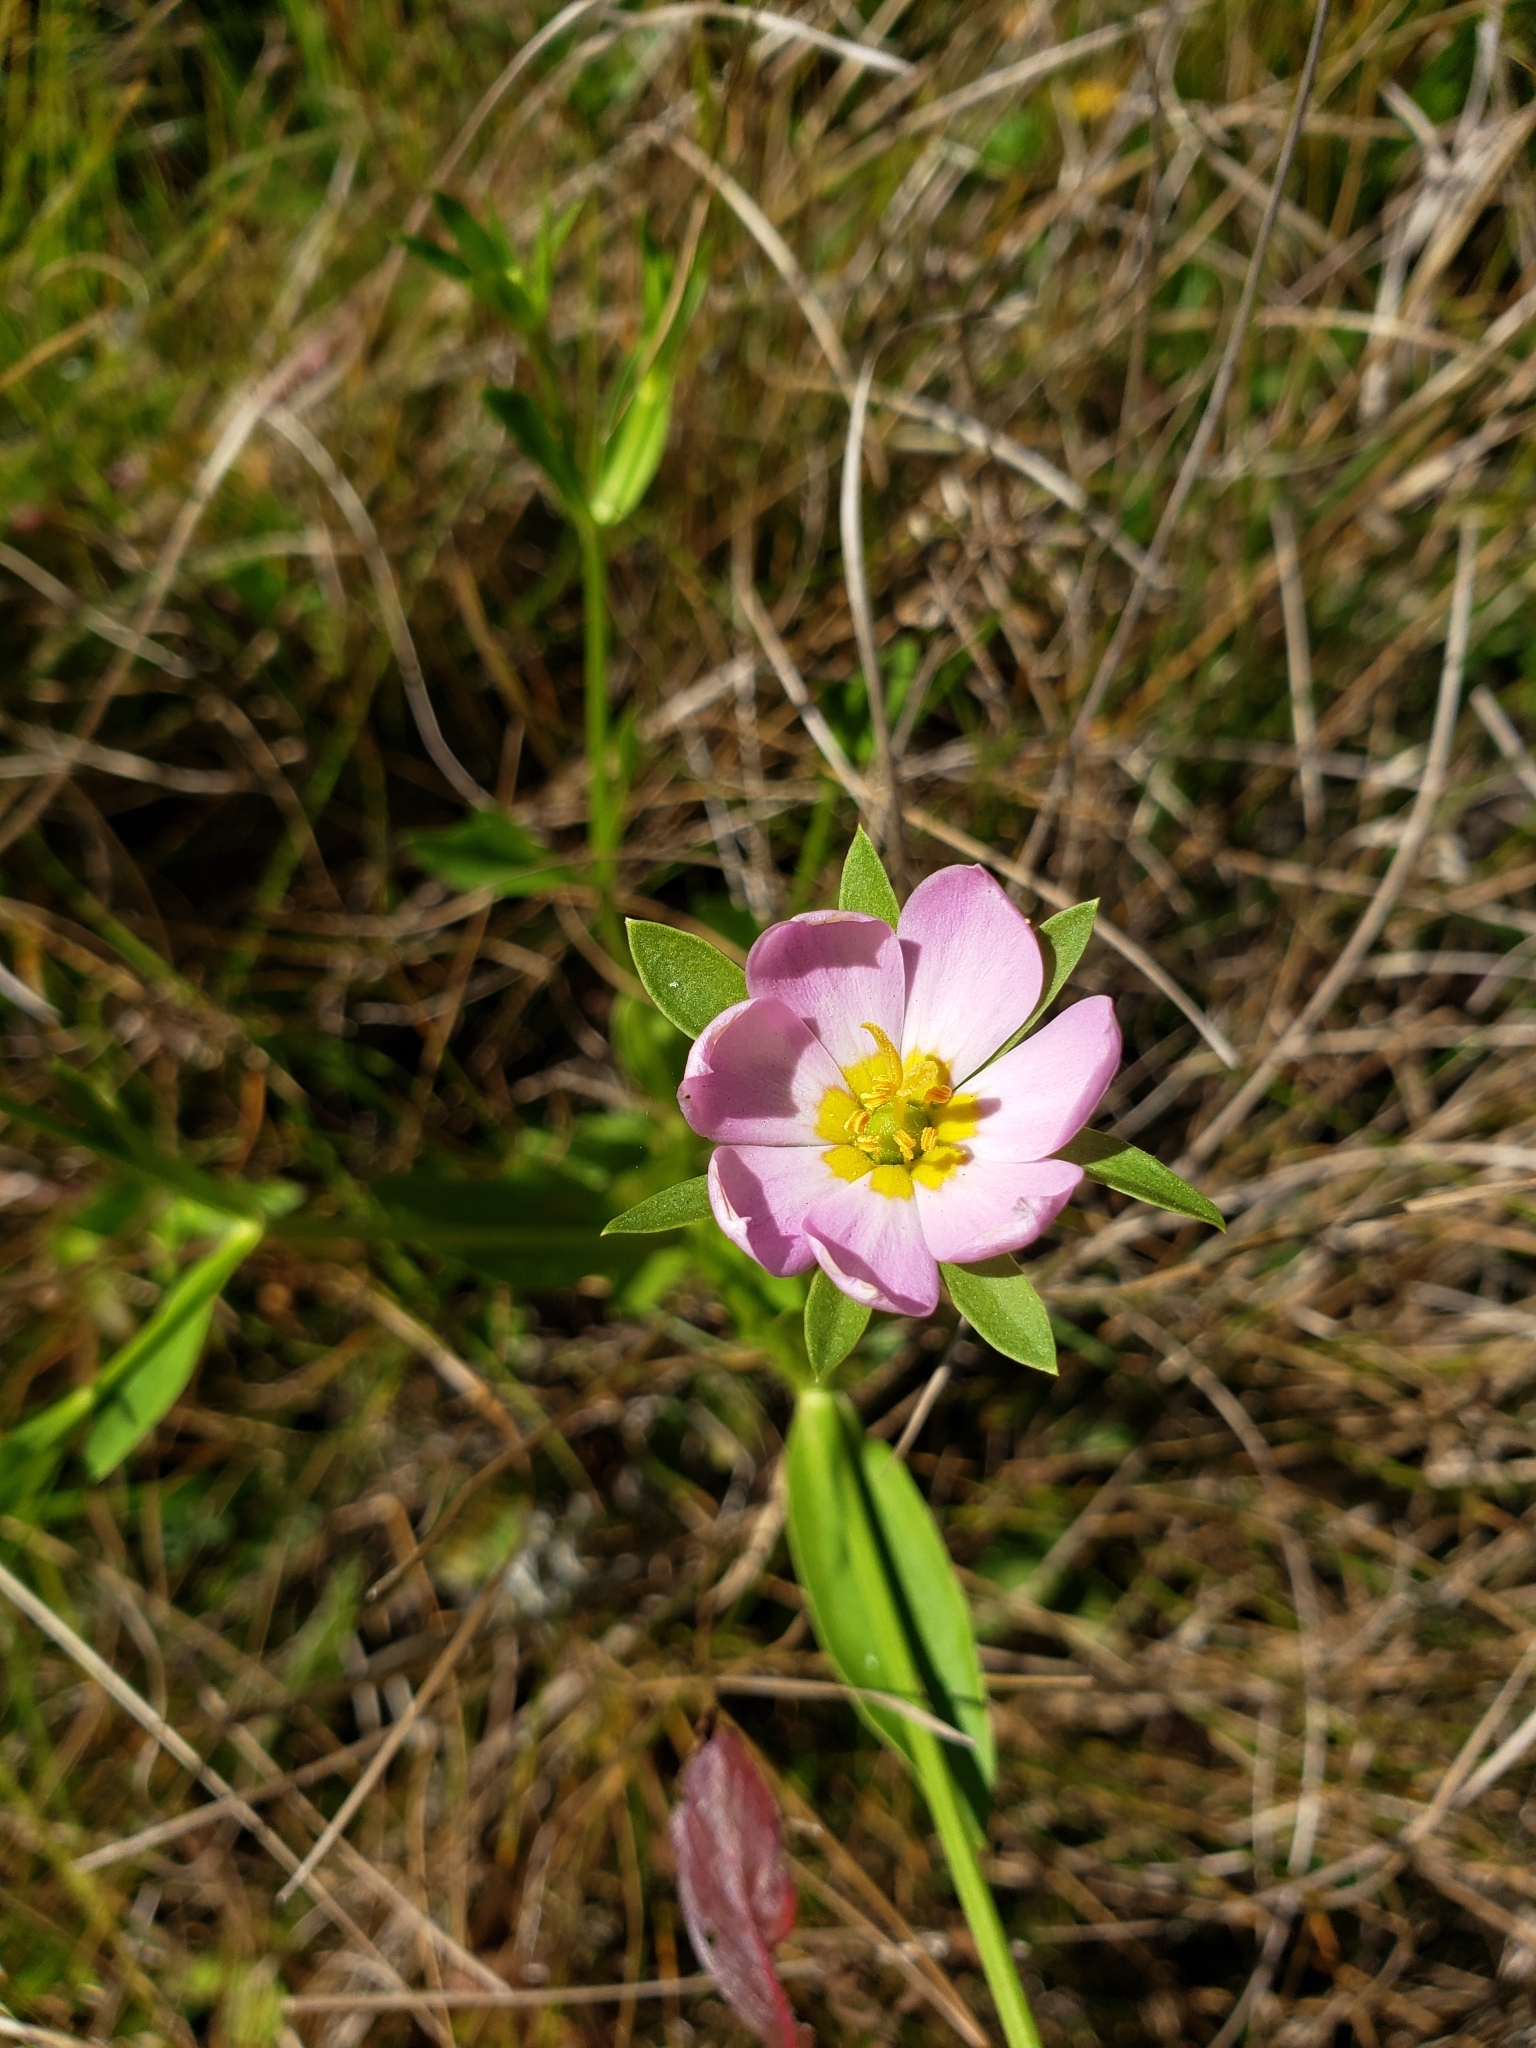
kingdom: Plantae
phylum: Tracheophyta
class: Magnoliopsida
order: Gentianales
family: Gentianaceae
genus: Sabatia
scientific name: Sabatia calycina
